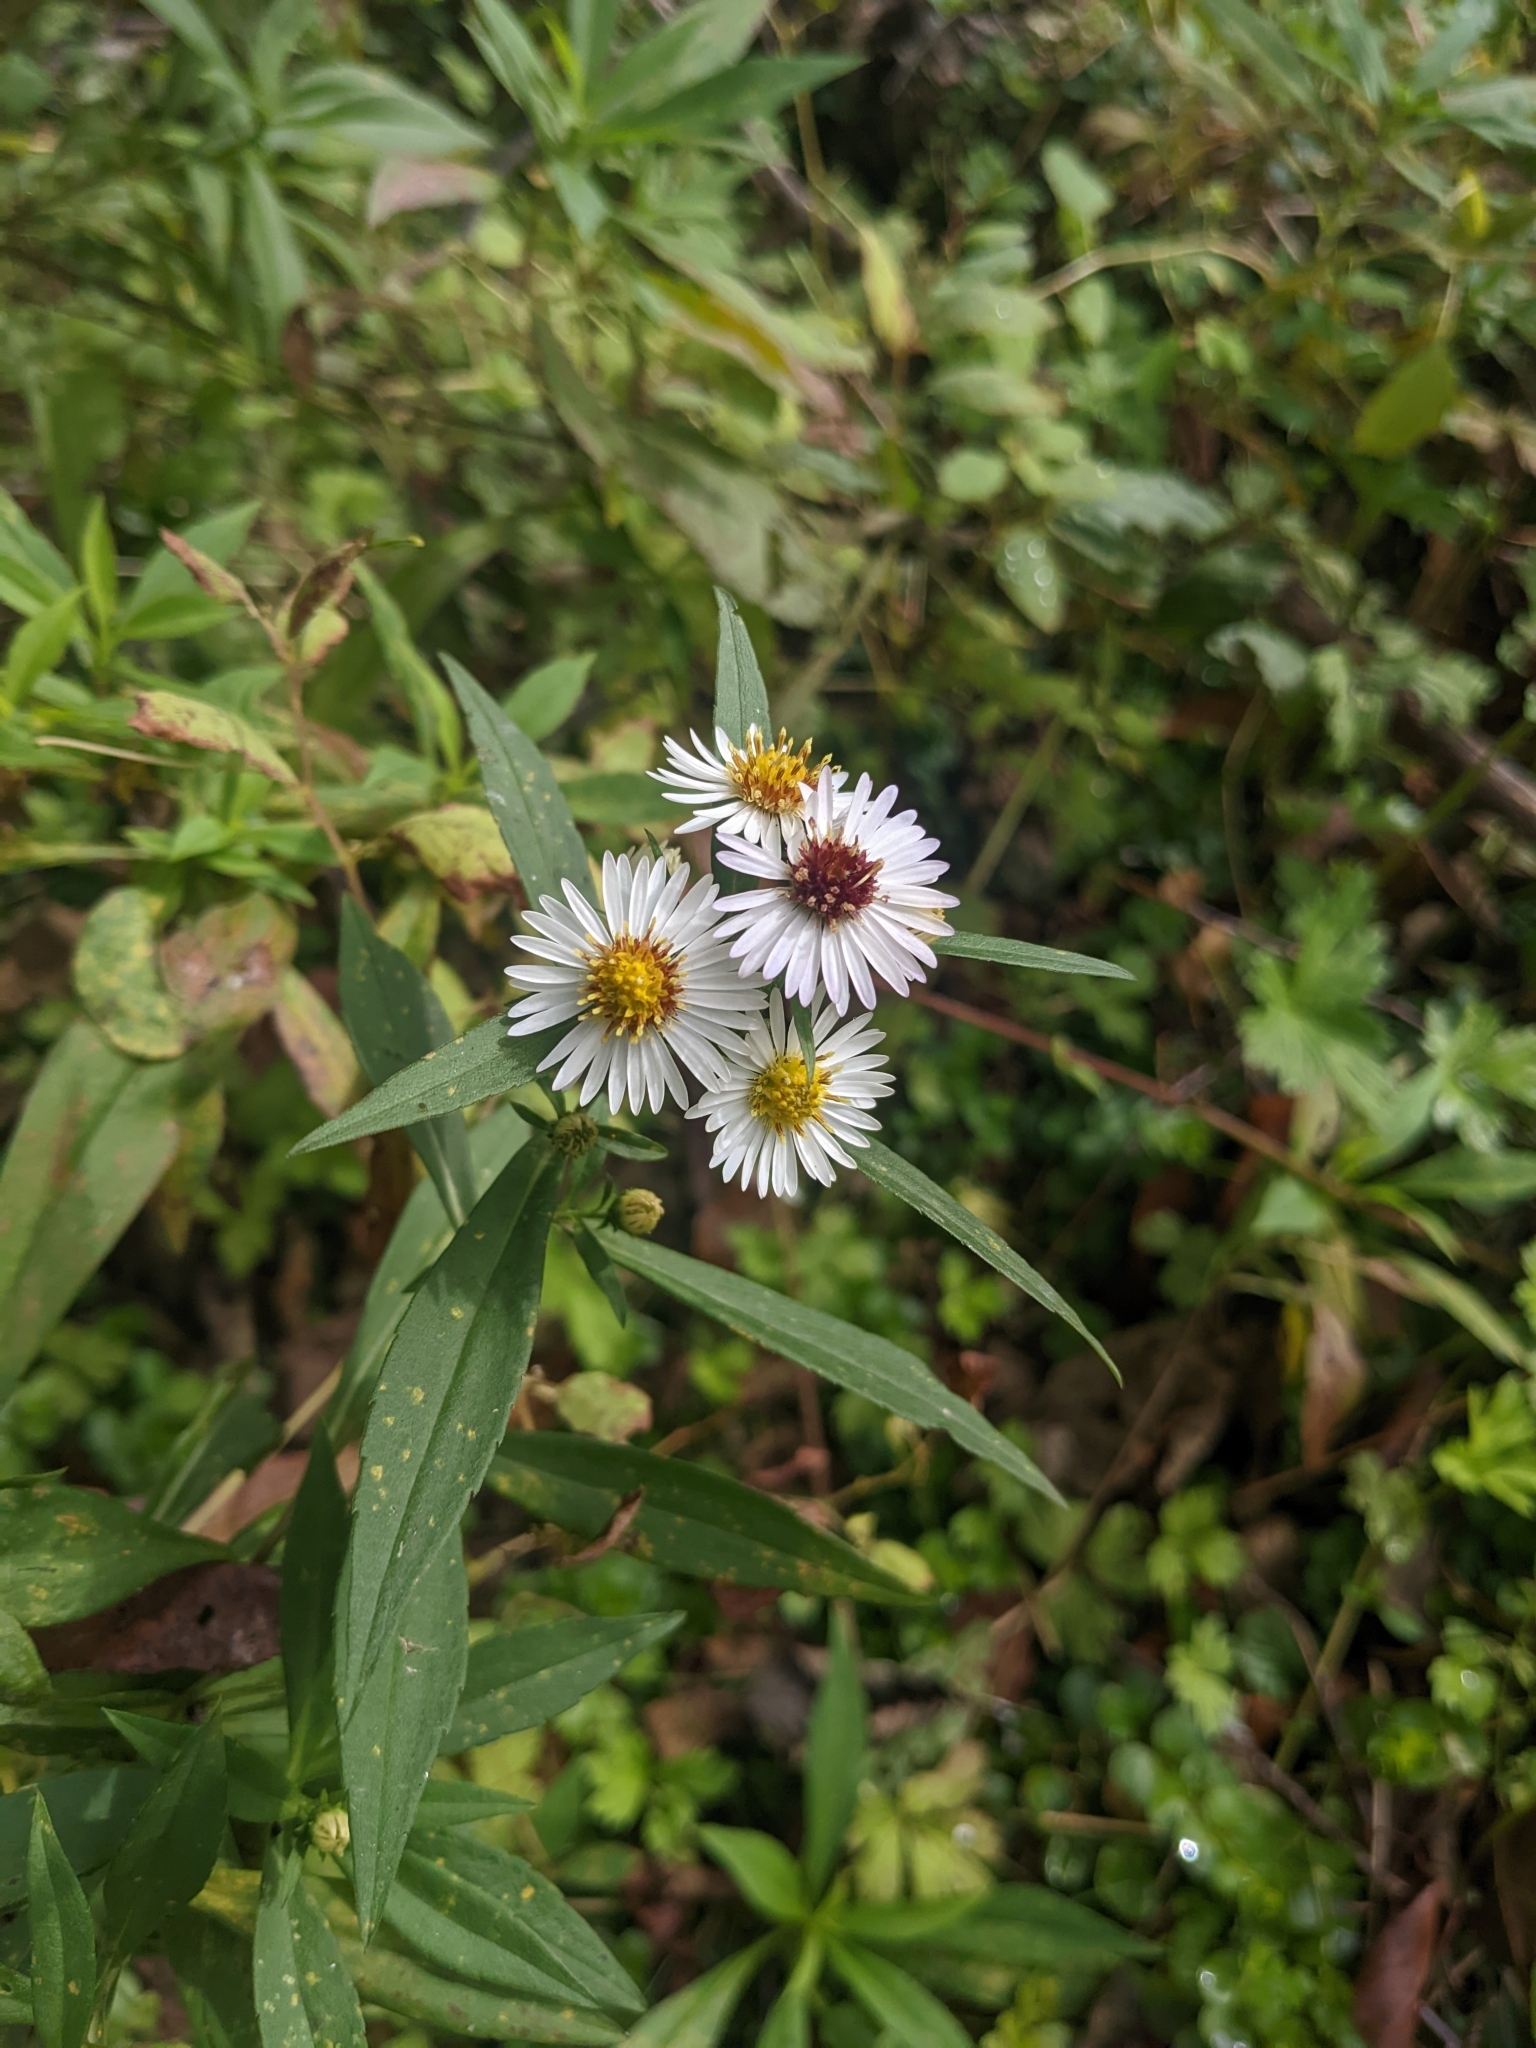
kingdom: Plantae
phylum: Tracheophyta
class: Magnoliopsida
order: Asterales
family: Asteraceae
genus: Symphyotrichum
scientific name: Symphyotrichum pilosum
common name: Awl aster
